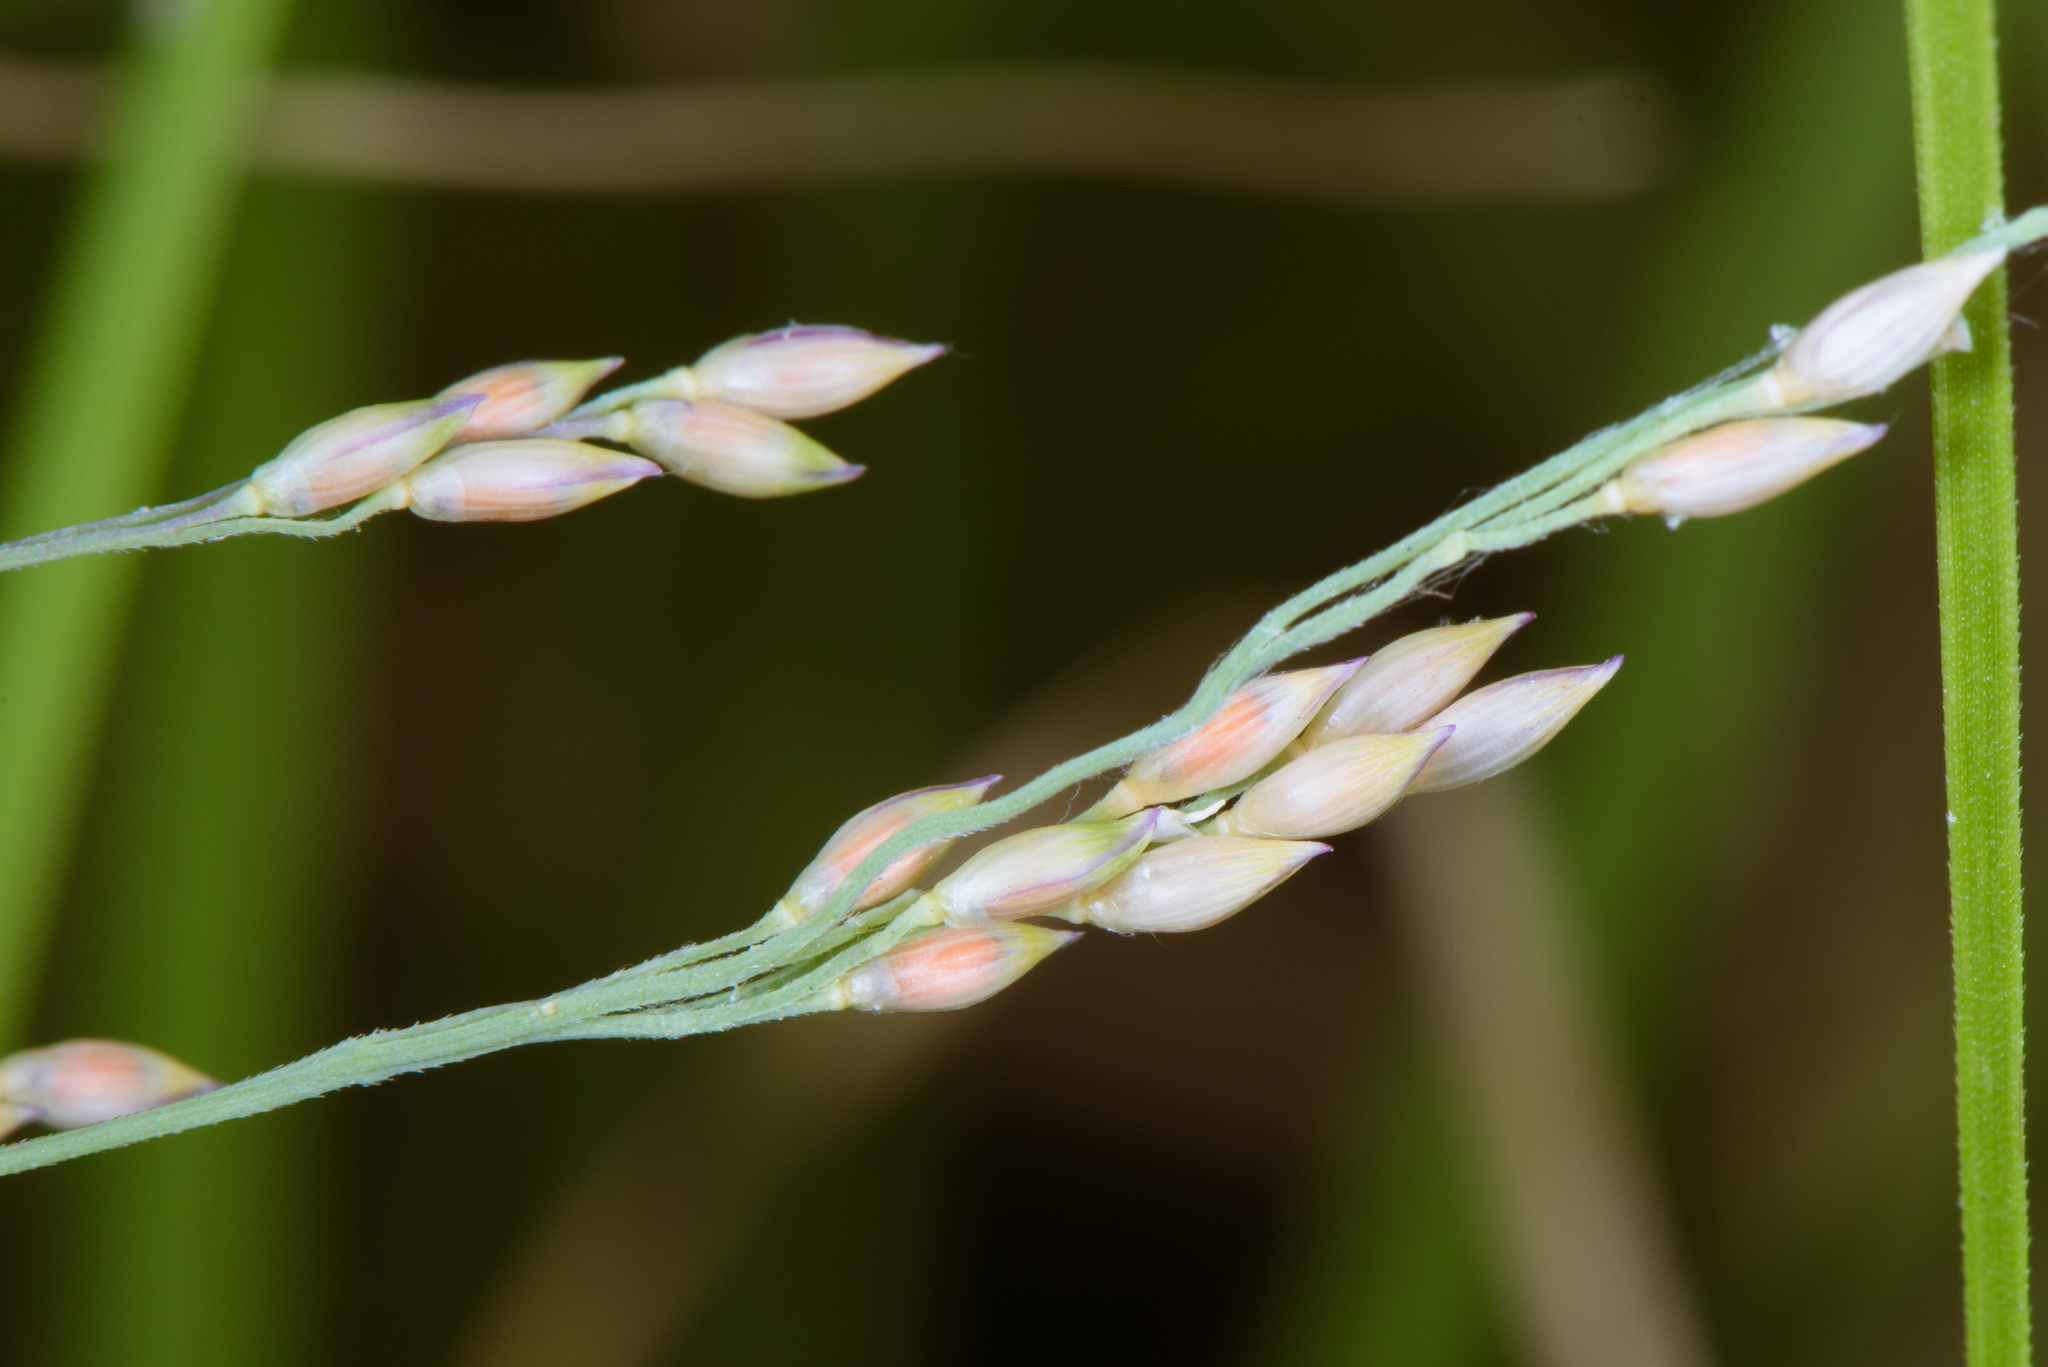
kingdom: Plantae
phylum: Tracheophyta
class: Liliopsida
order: Poales
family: Poaceae
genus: Panicum
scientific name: Panicum repens
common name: Torpedo grass
